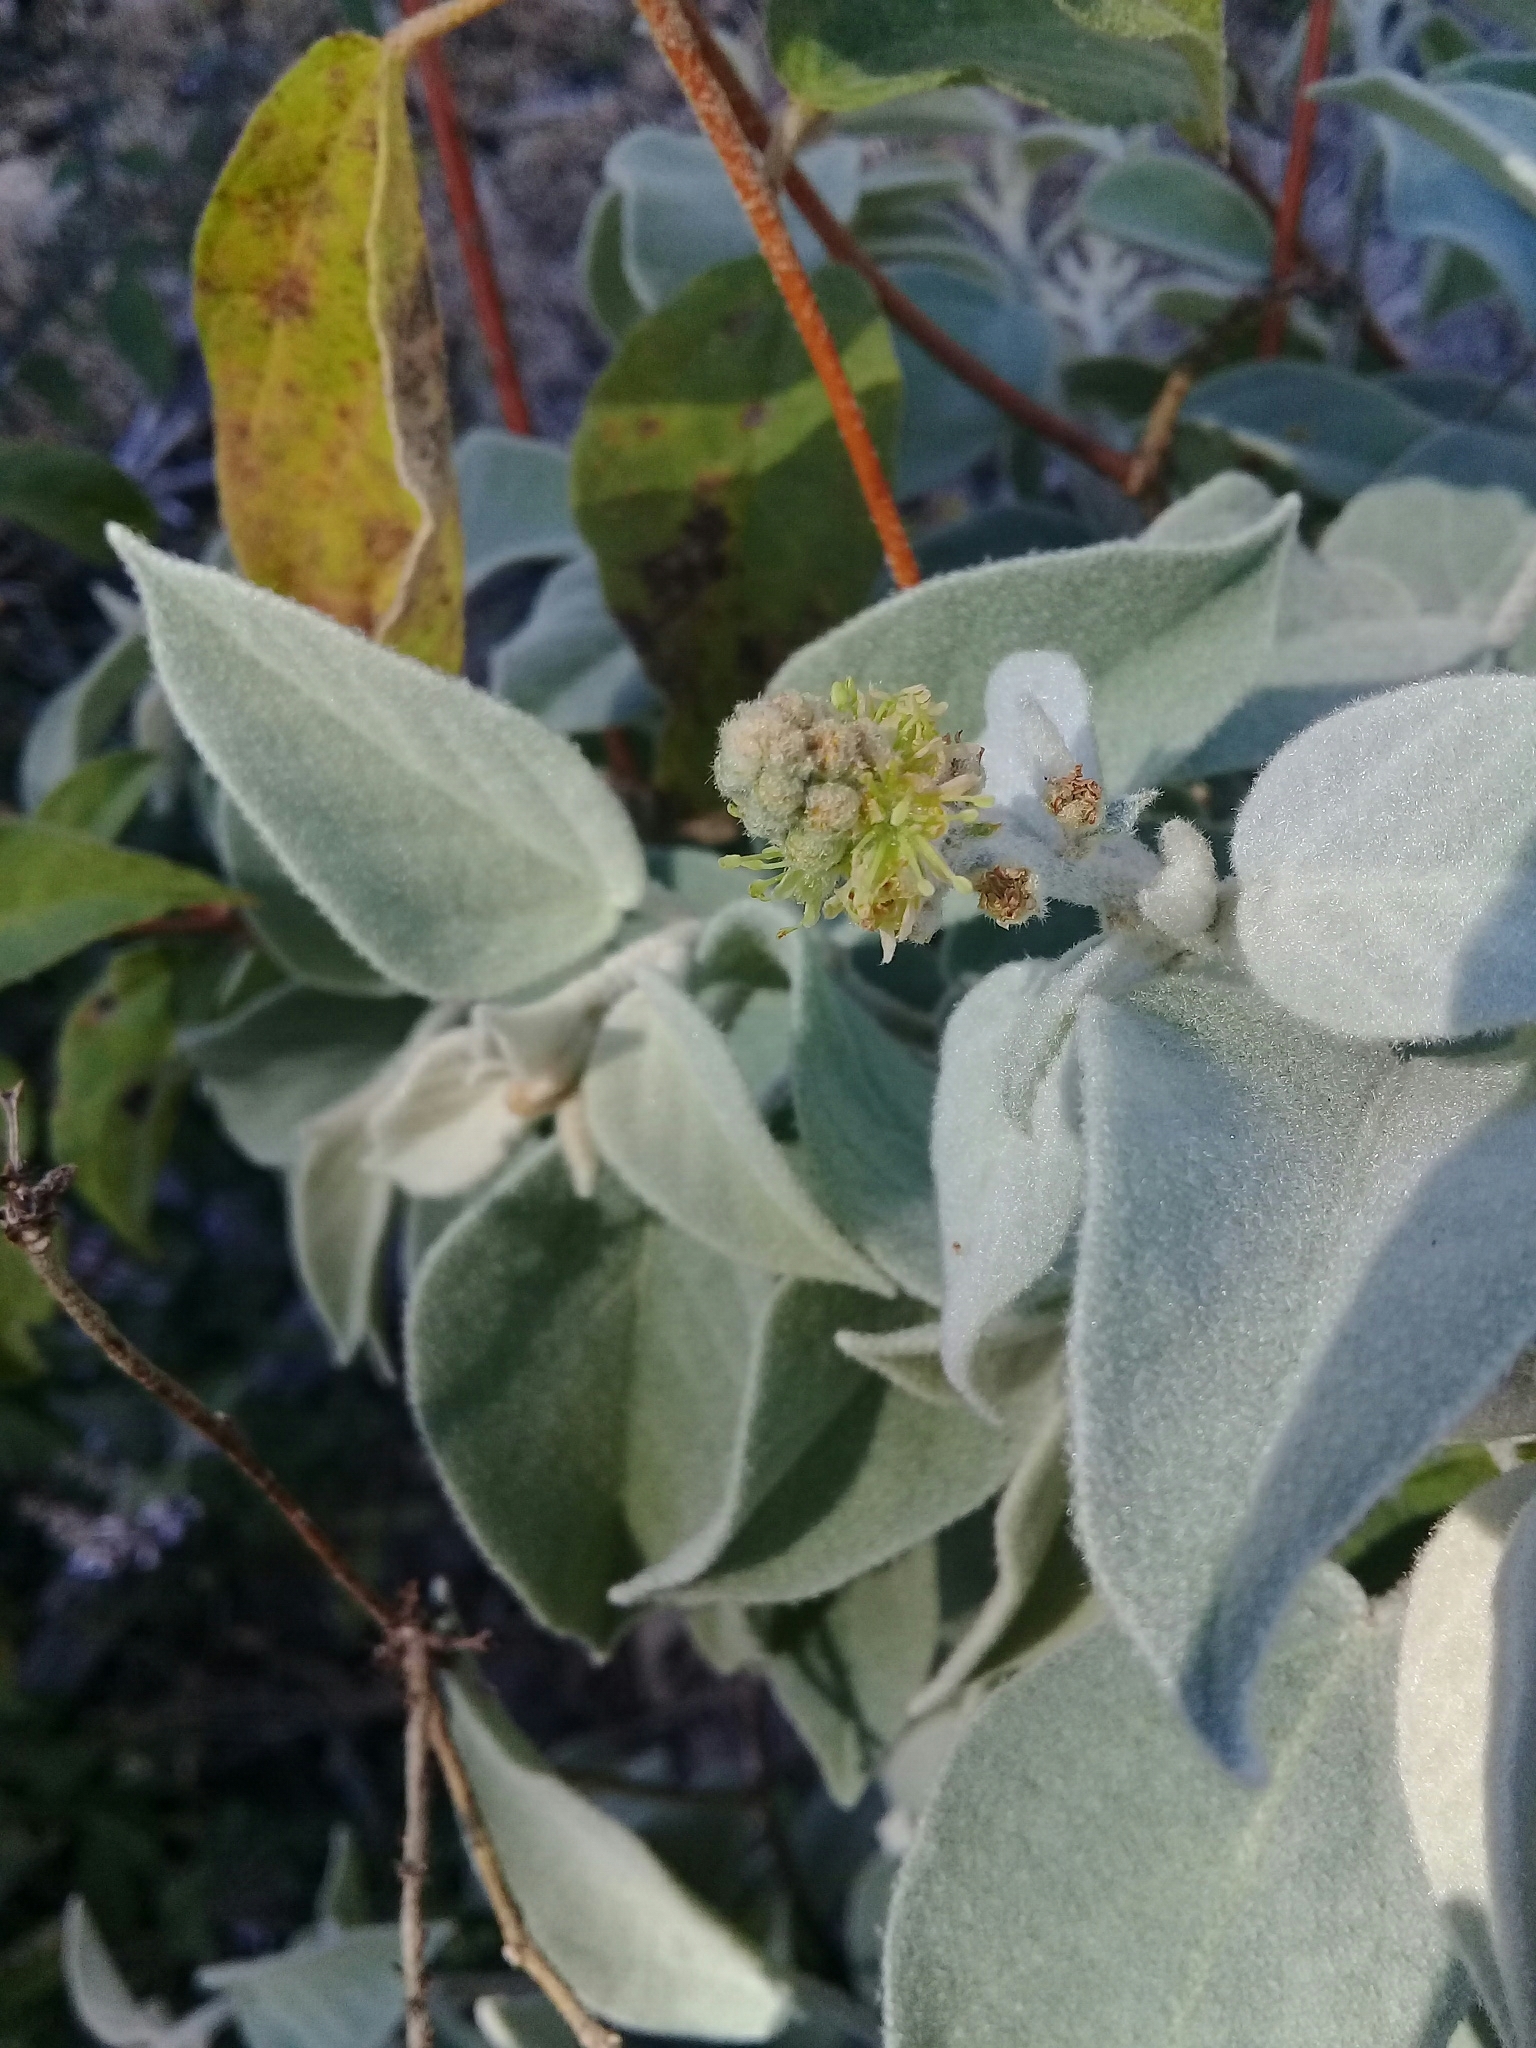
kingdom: Plantae
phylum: Tracheophyta
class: Magnoliopsida
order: Malpighiales
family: Euphorbiaceae
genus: Croton
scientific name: Croton adspersus
